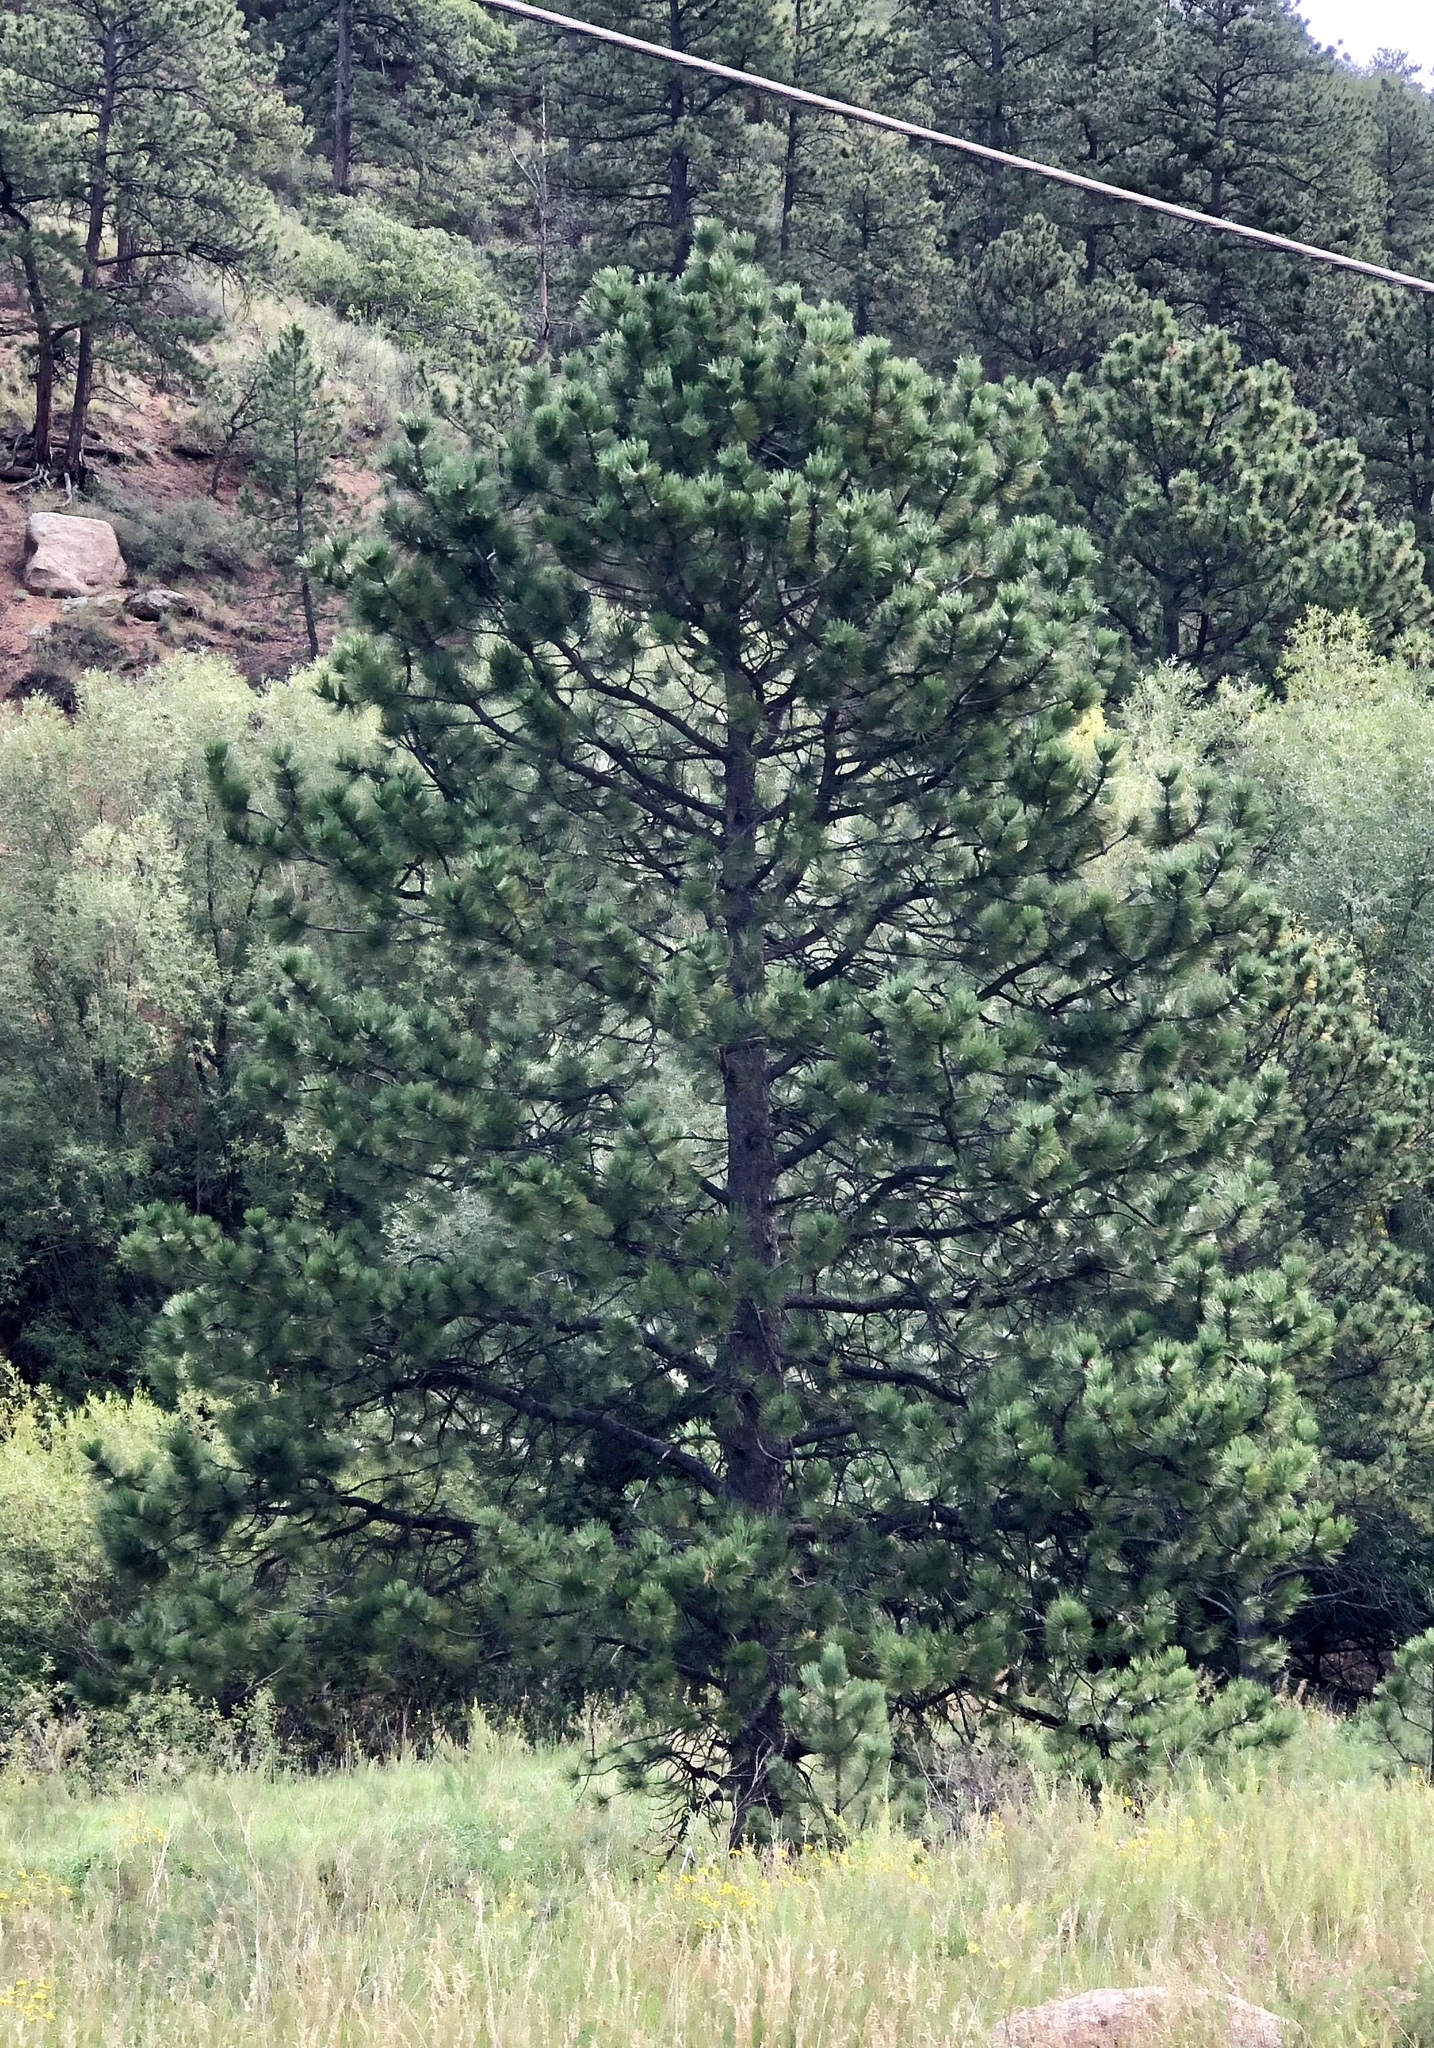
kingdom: Plantae
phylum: Tracheophyta
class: Pinopsida
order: Pinales
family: Pinaceae
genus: Pinus
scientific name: Pinus ponderosa
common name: Western yellow-pine
